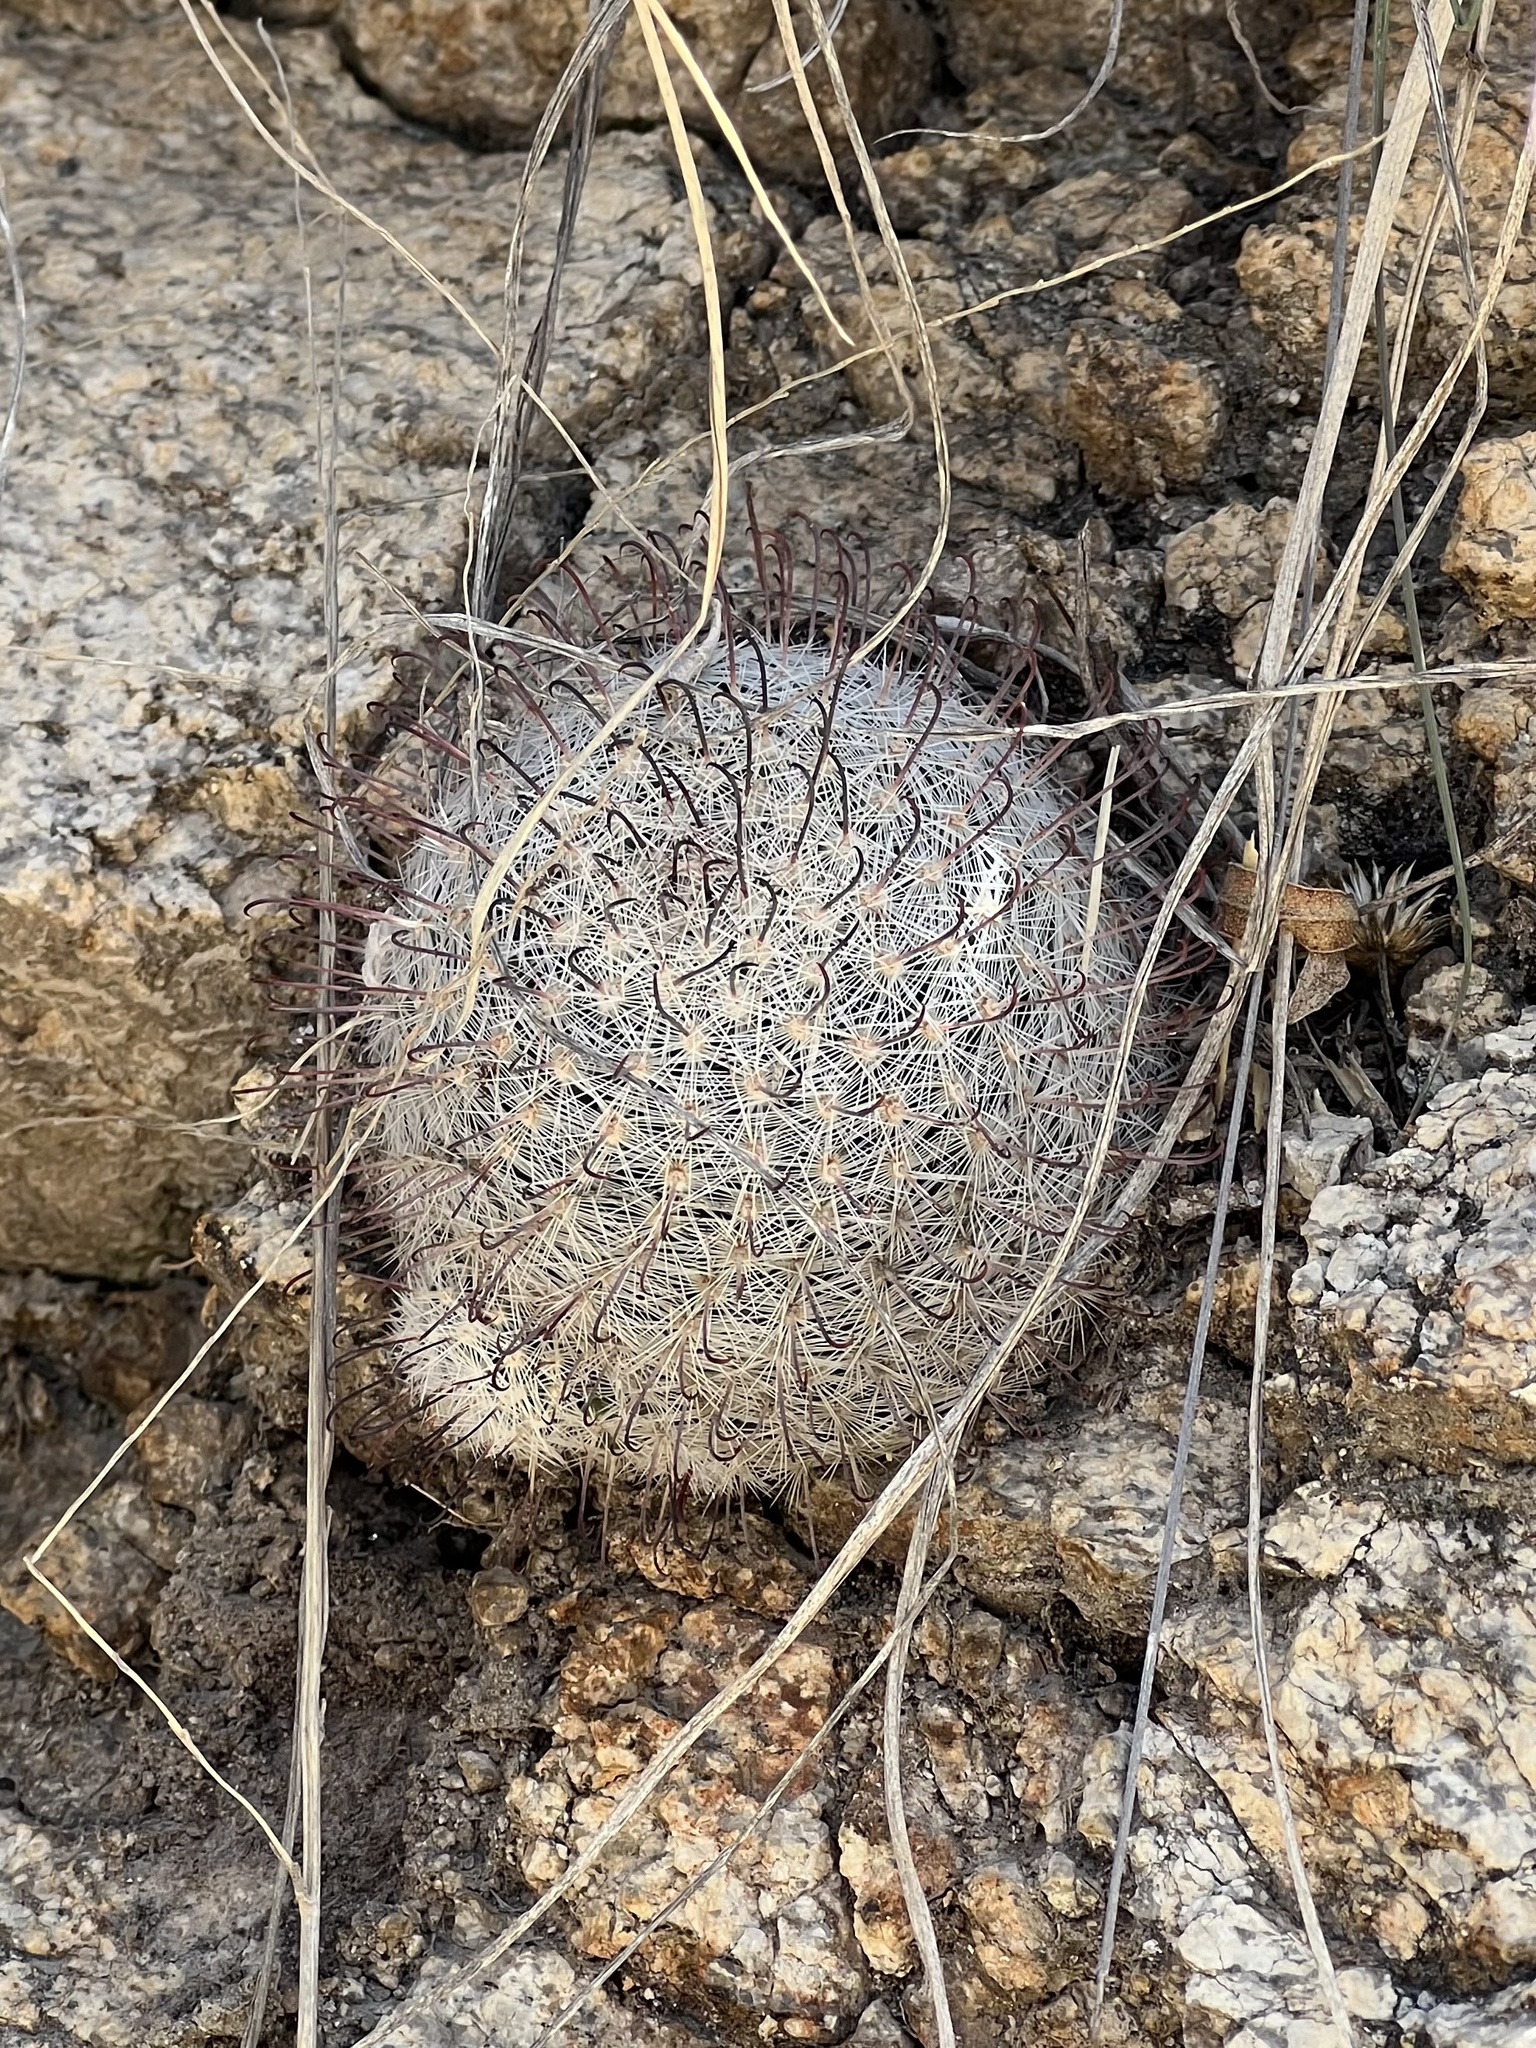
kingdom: Plantae
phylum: Tracheophyta
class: Magnoliopsida
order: Caryophyllales
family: Cactaceae
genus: Cochemiea
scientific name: Cochemiea grahamii
